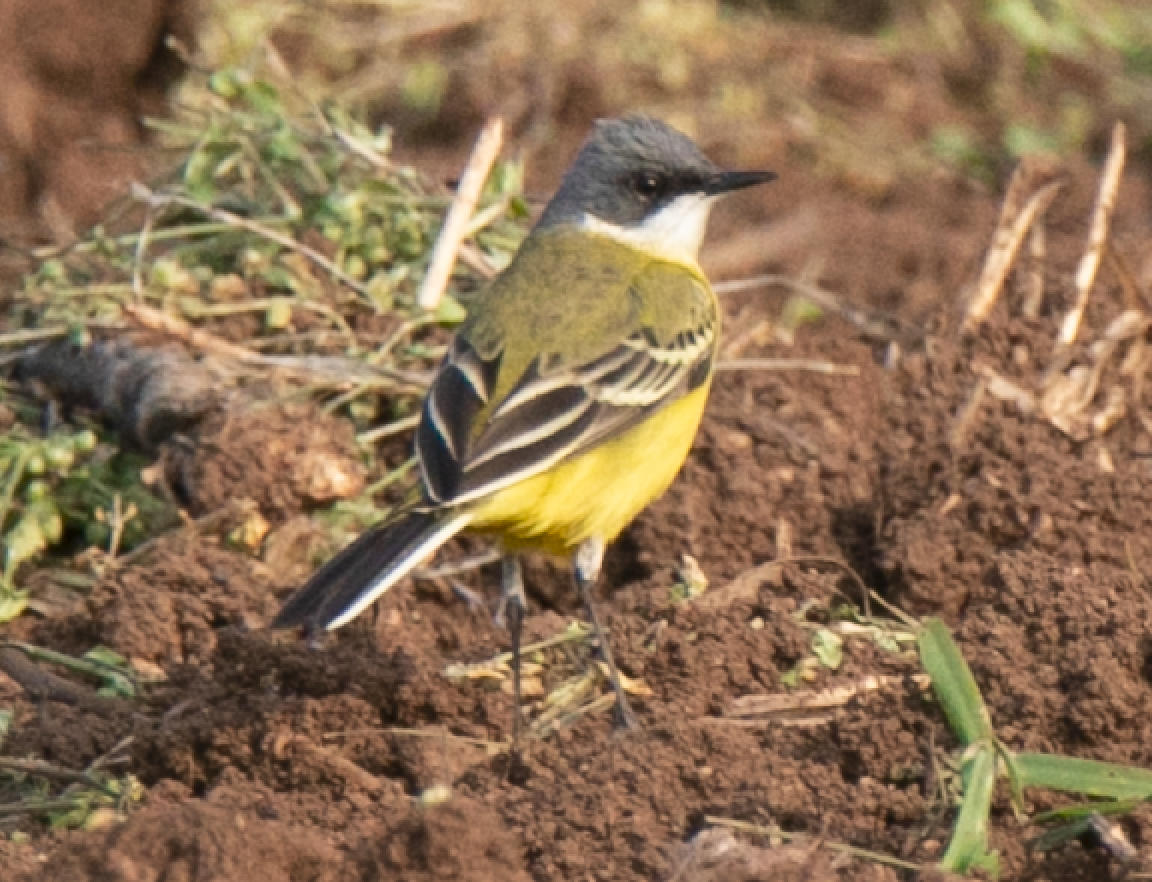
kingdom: Animalia
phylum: Chordata
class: Aves
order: Passeriformes
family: Motacillidae
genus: Motacilla
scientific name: Motacilla flava
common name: Western yellow wagtail
